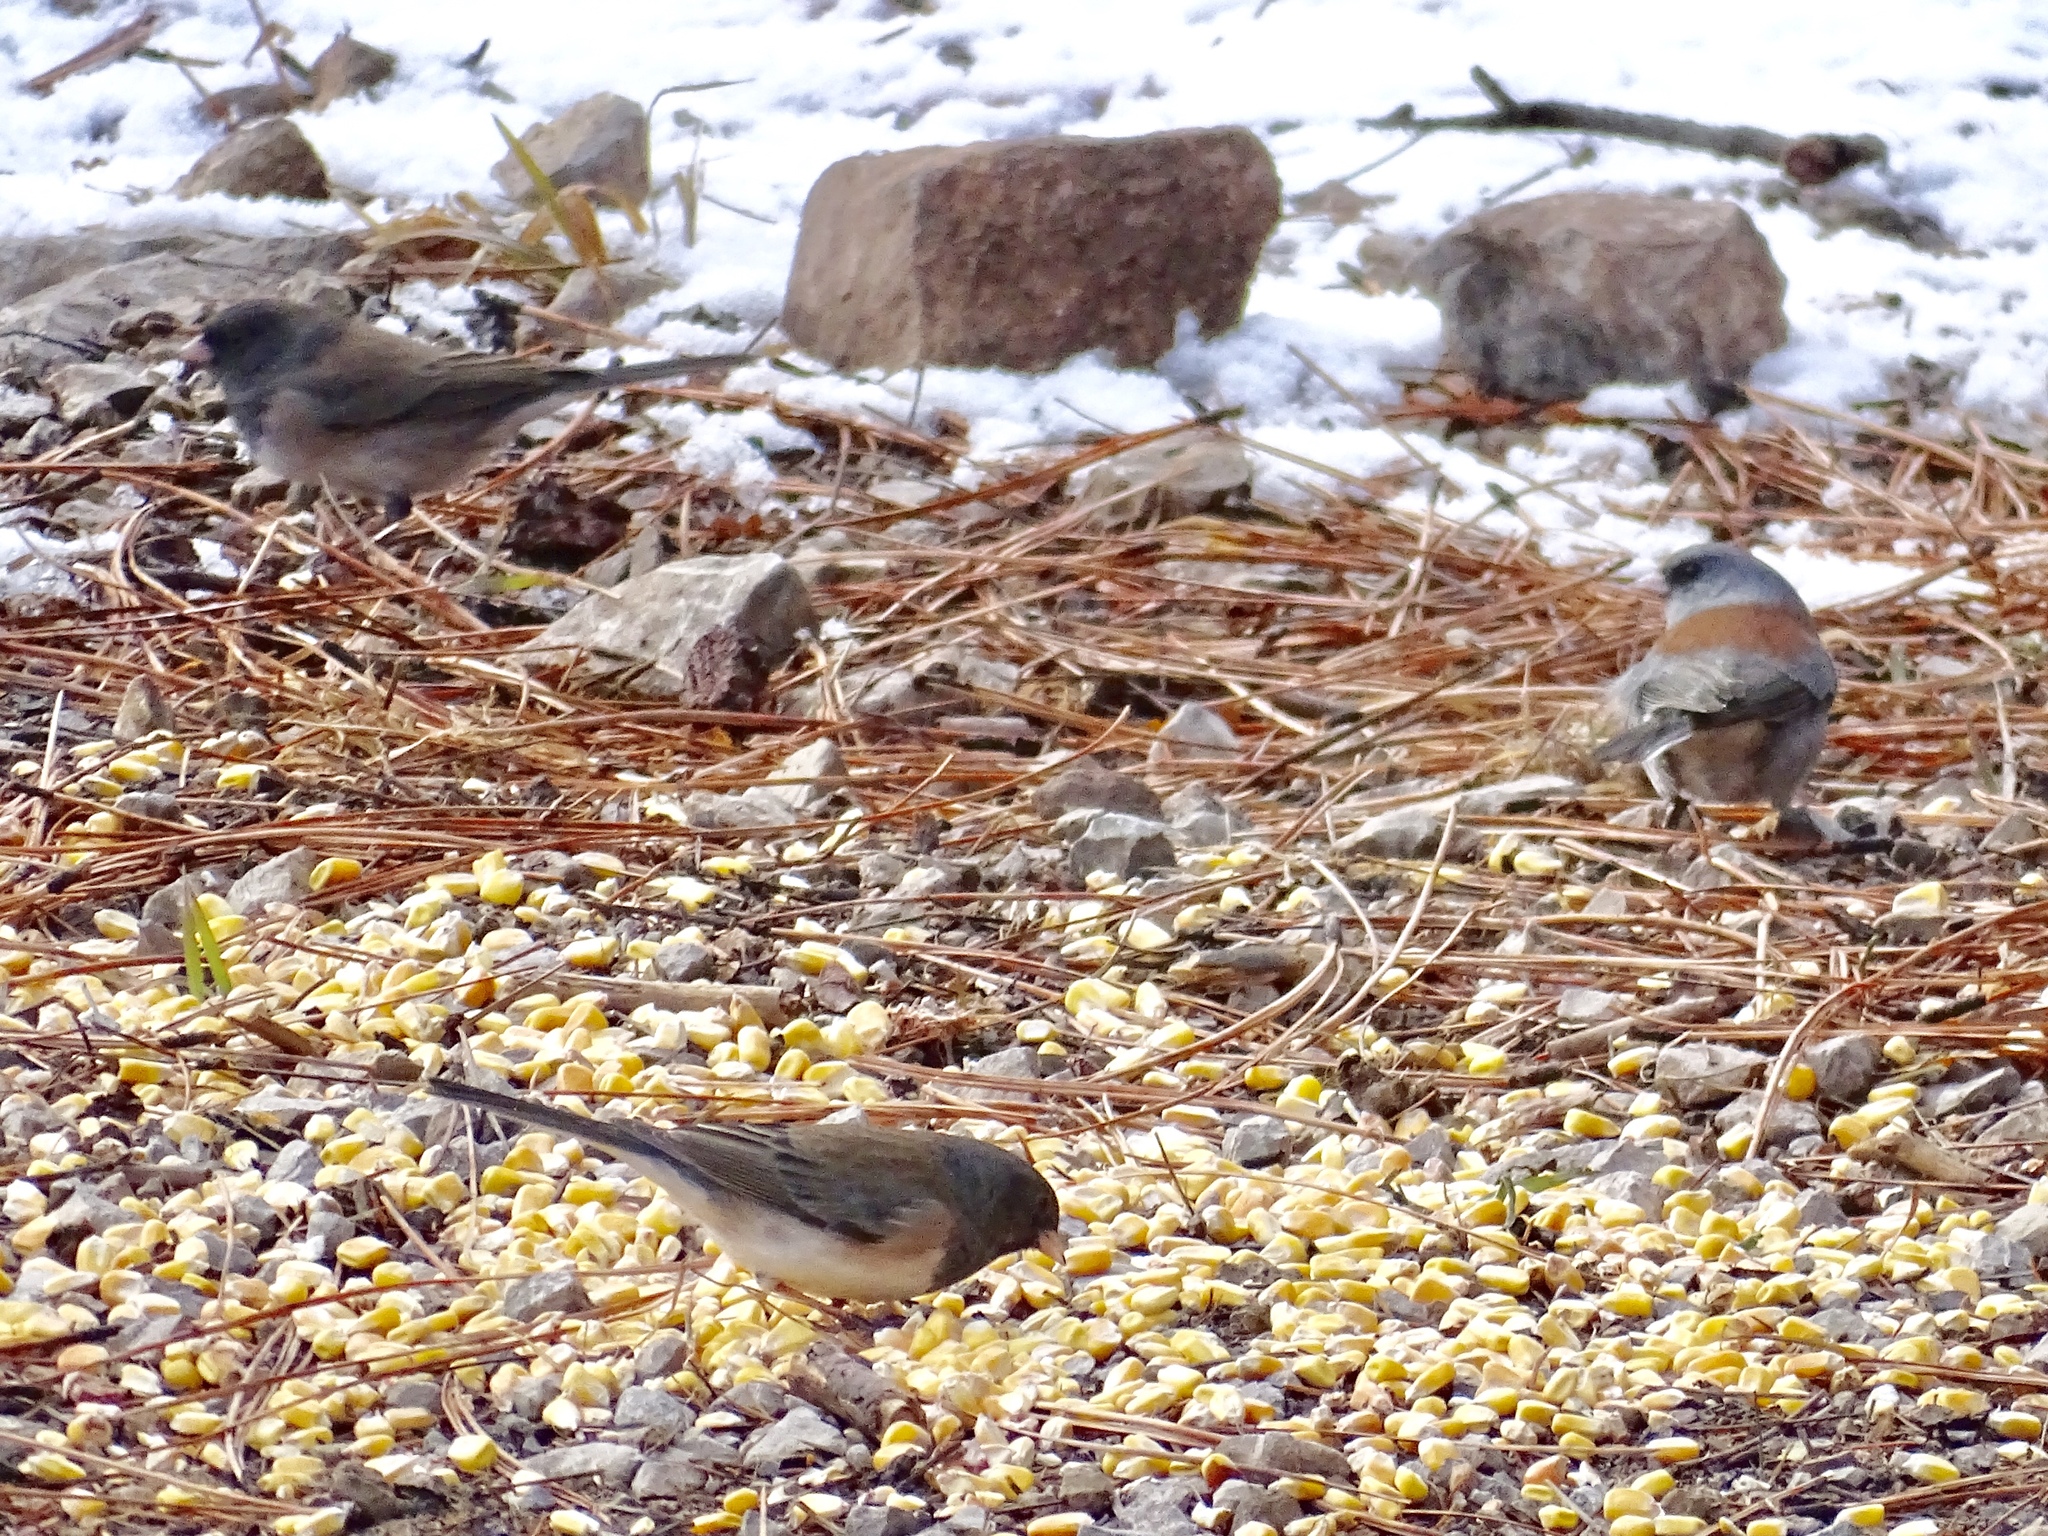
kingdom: Animalia
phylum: Chordata
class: Aves
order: Passeriformes
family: Passerellidae
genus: Junco
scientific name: Junco hyemalis
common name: Dark-eyed junco
